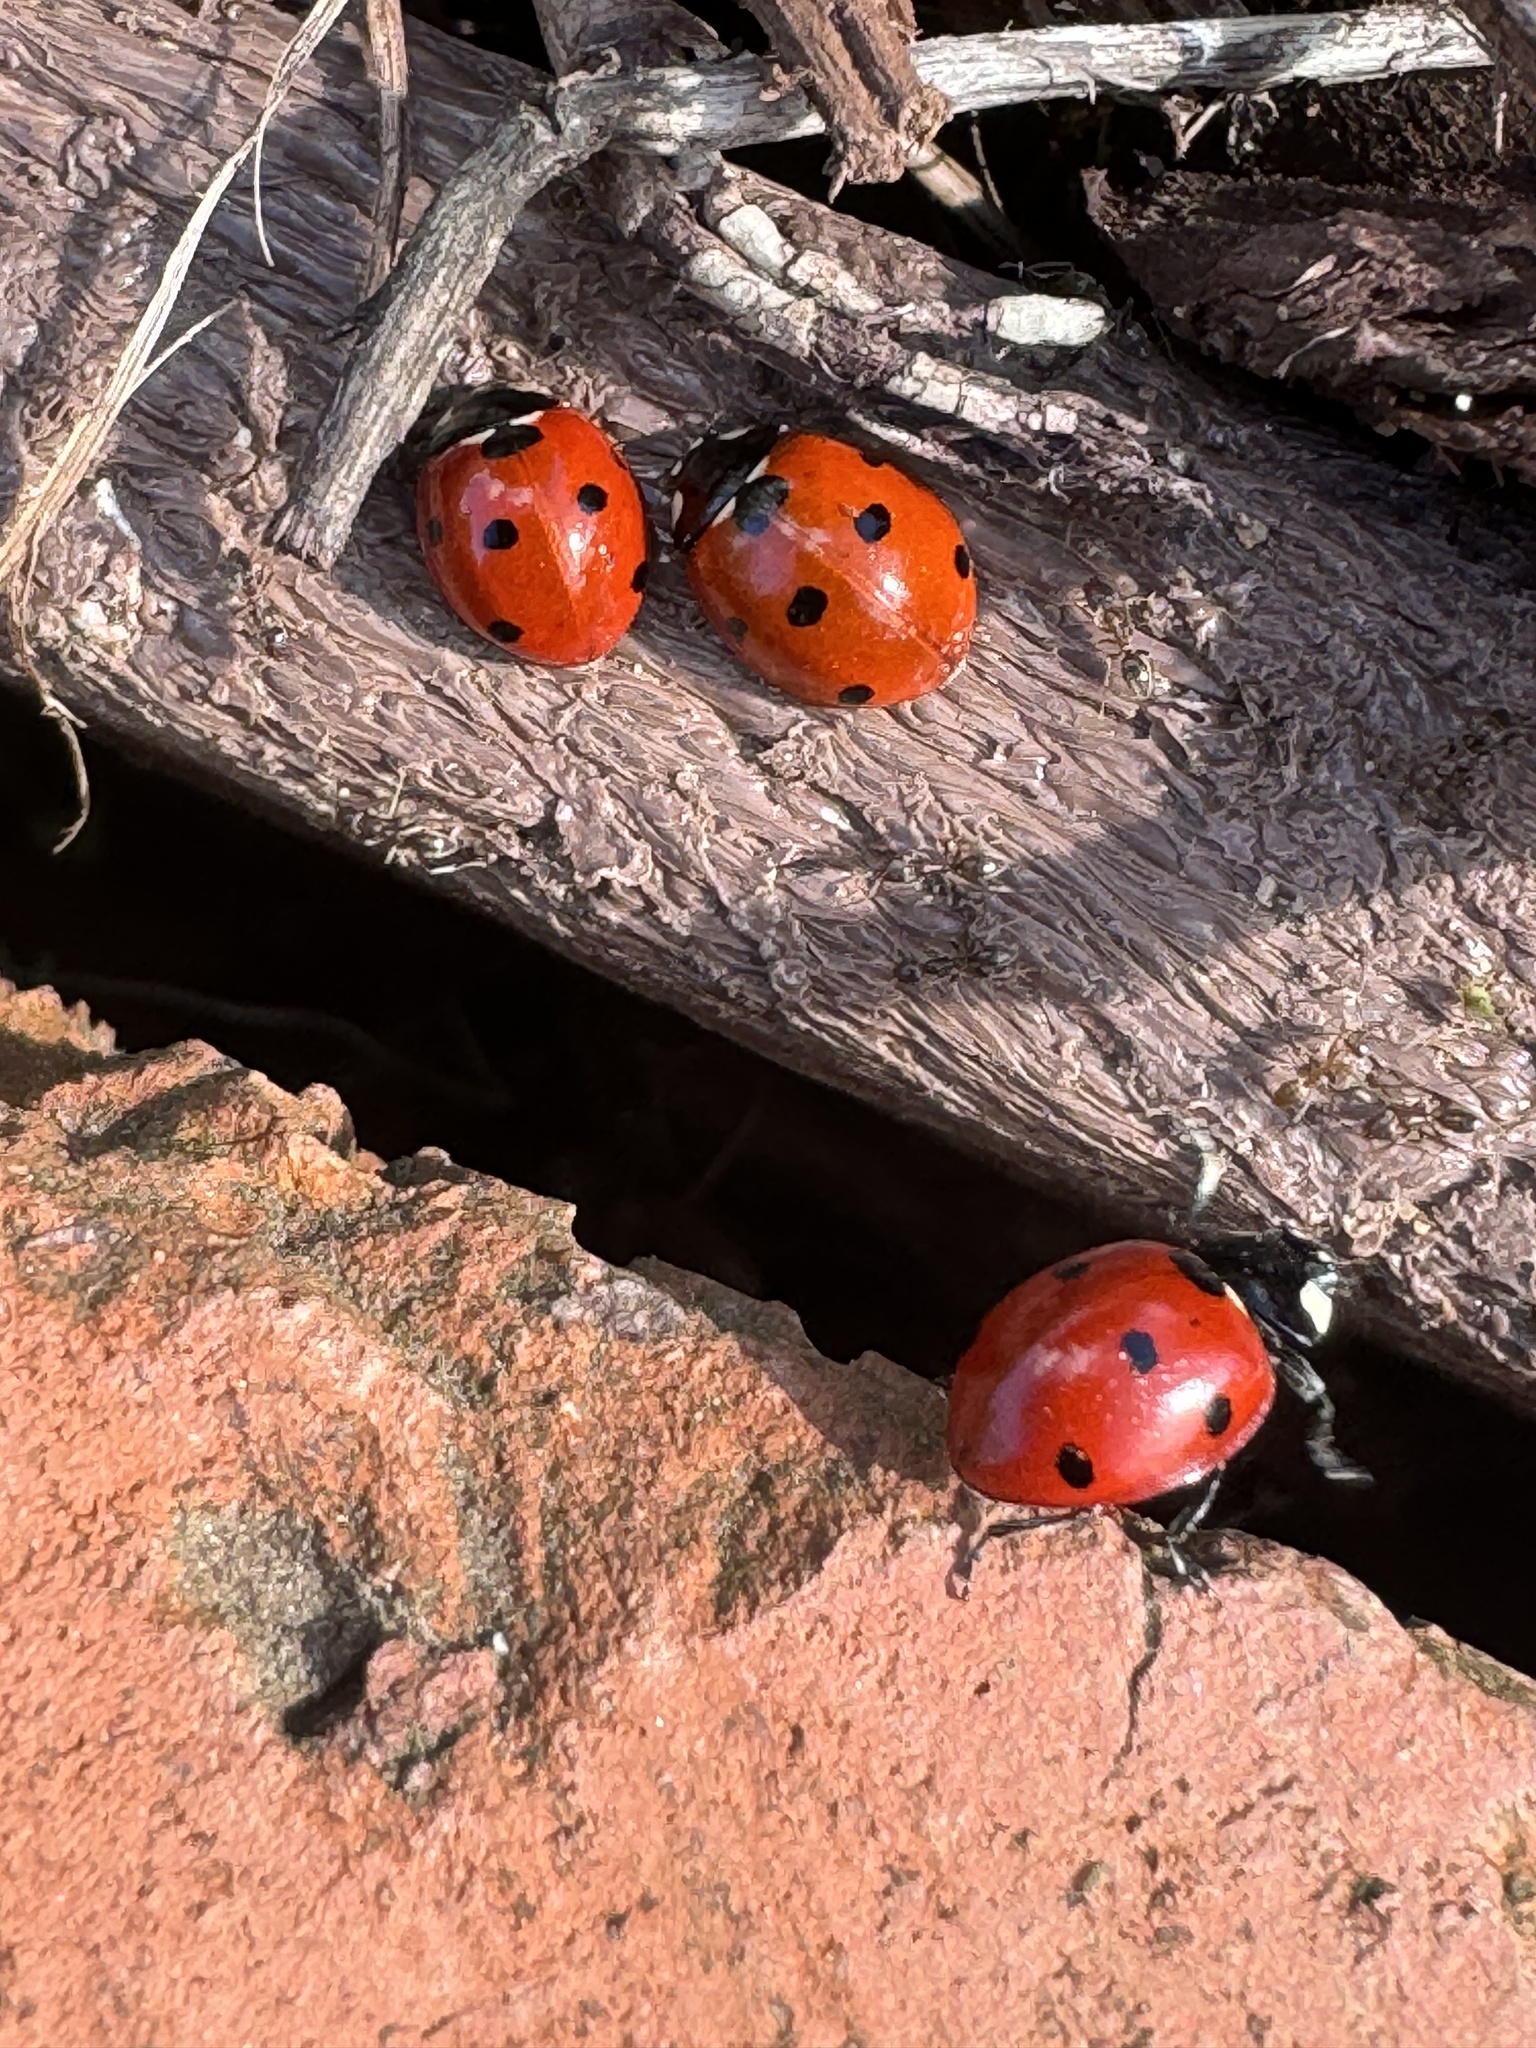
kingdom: Animalia
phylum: Arthropoda
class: Insecta
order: Coleoptera
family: Coccinellidae
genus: Coccinella
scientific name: Coccinella septempunctata
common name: Sevenspotted lady beetle
